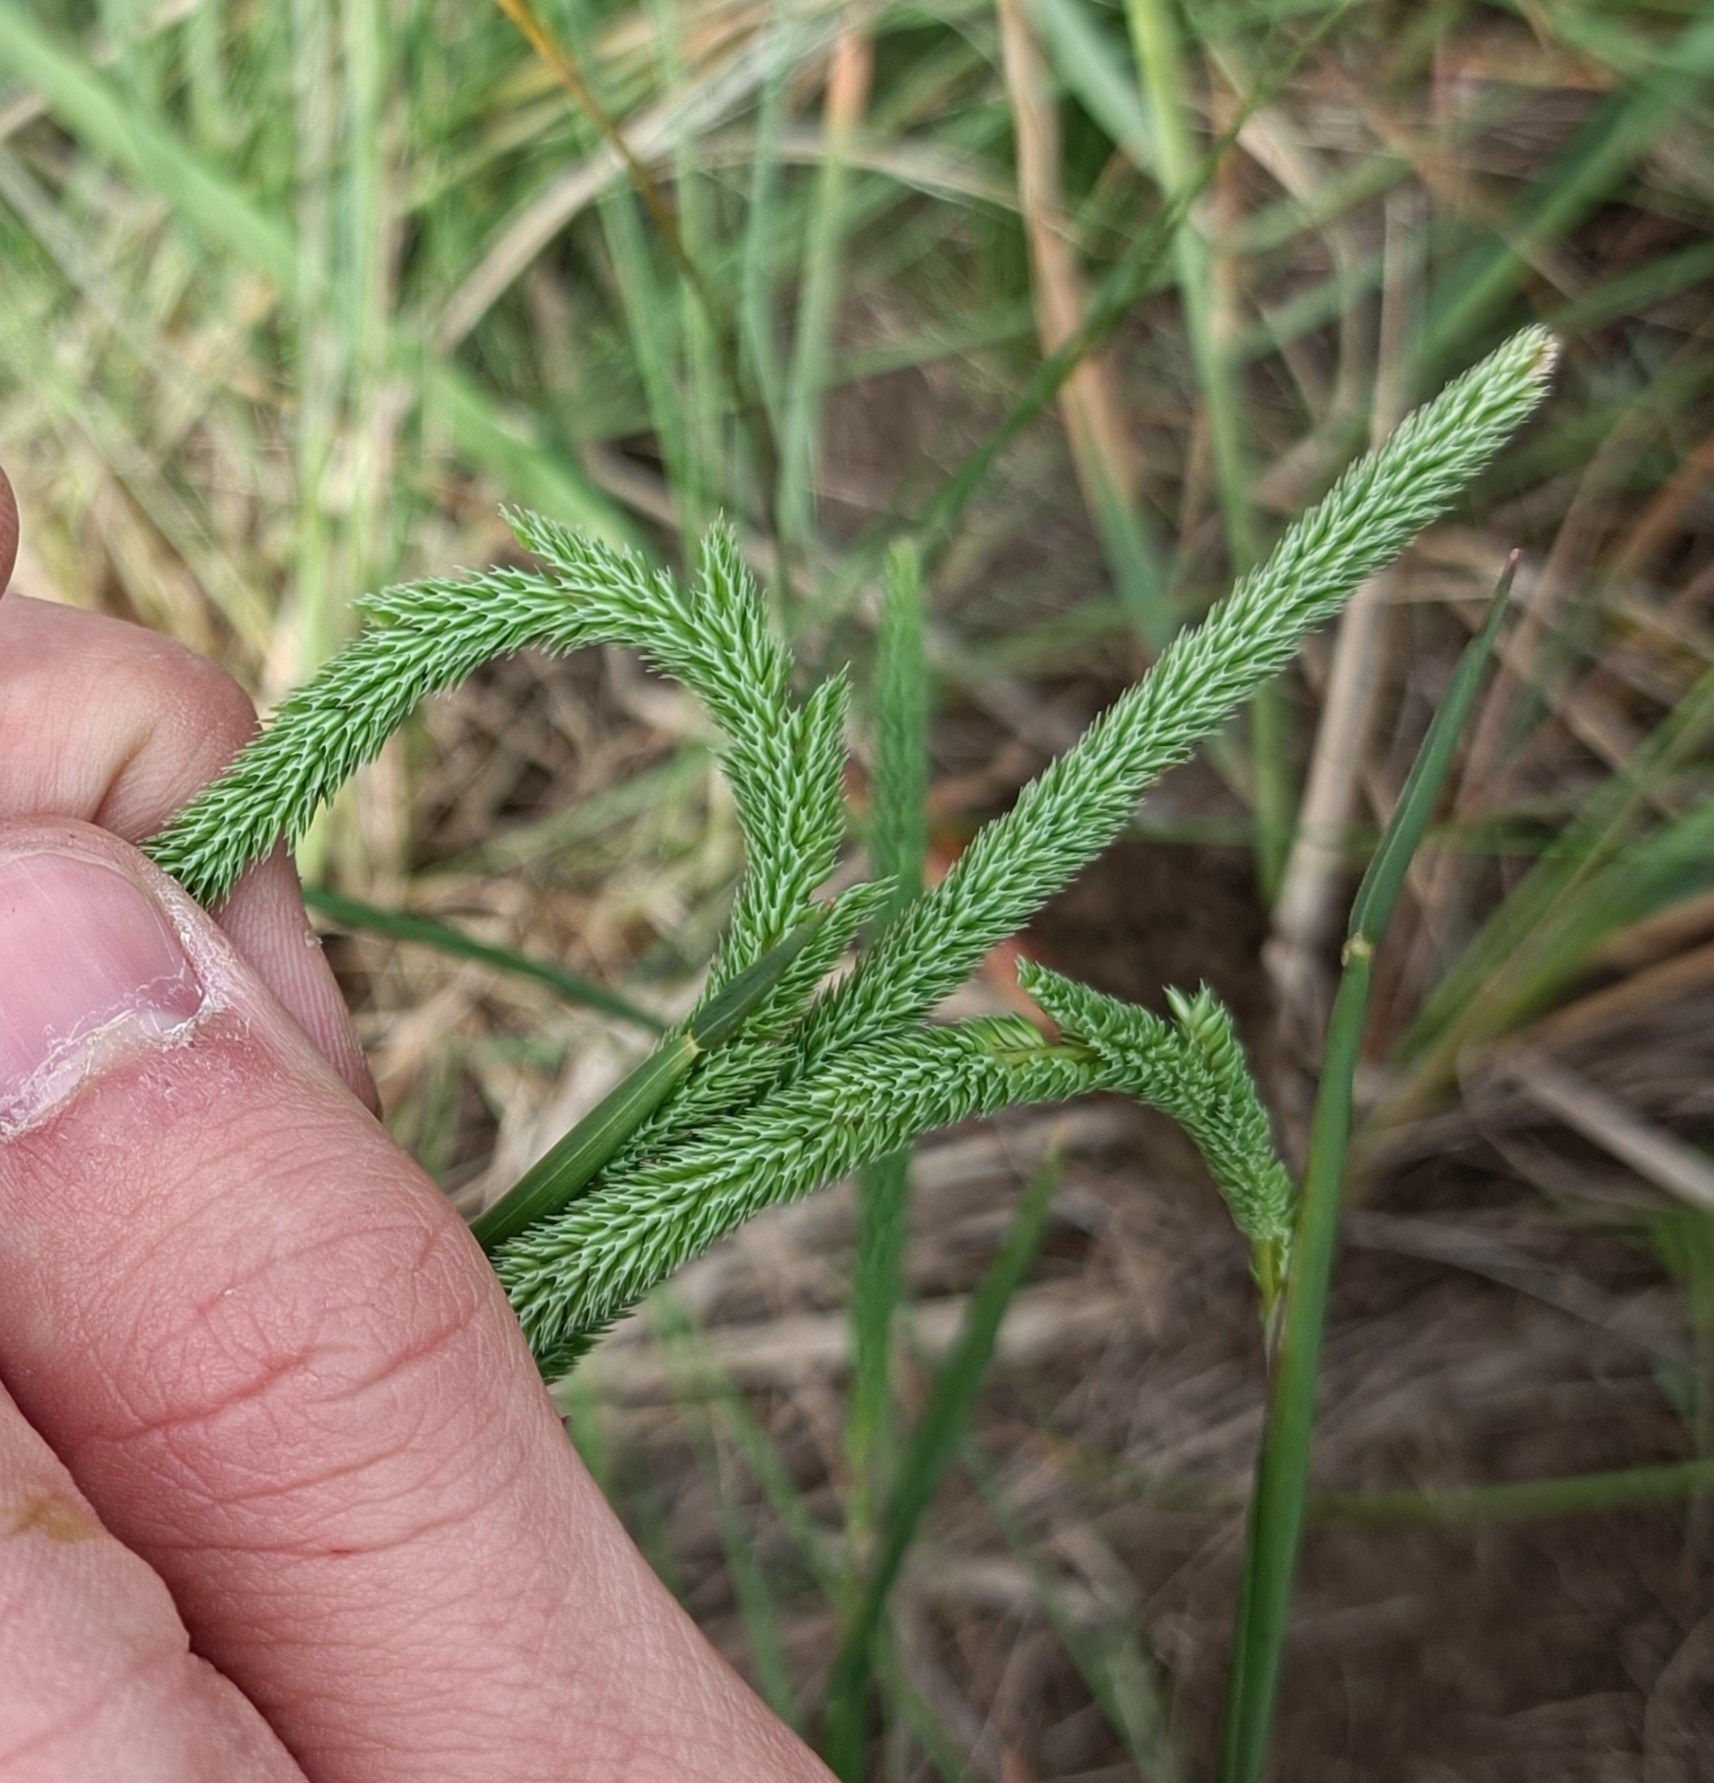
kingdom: Plantae
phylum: Tracheophyta
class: Liliopsida
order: Poales
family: Poaceae
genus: Phleum
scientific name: Phleum phleoides
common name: Purple-stem cat's-tail
